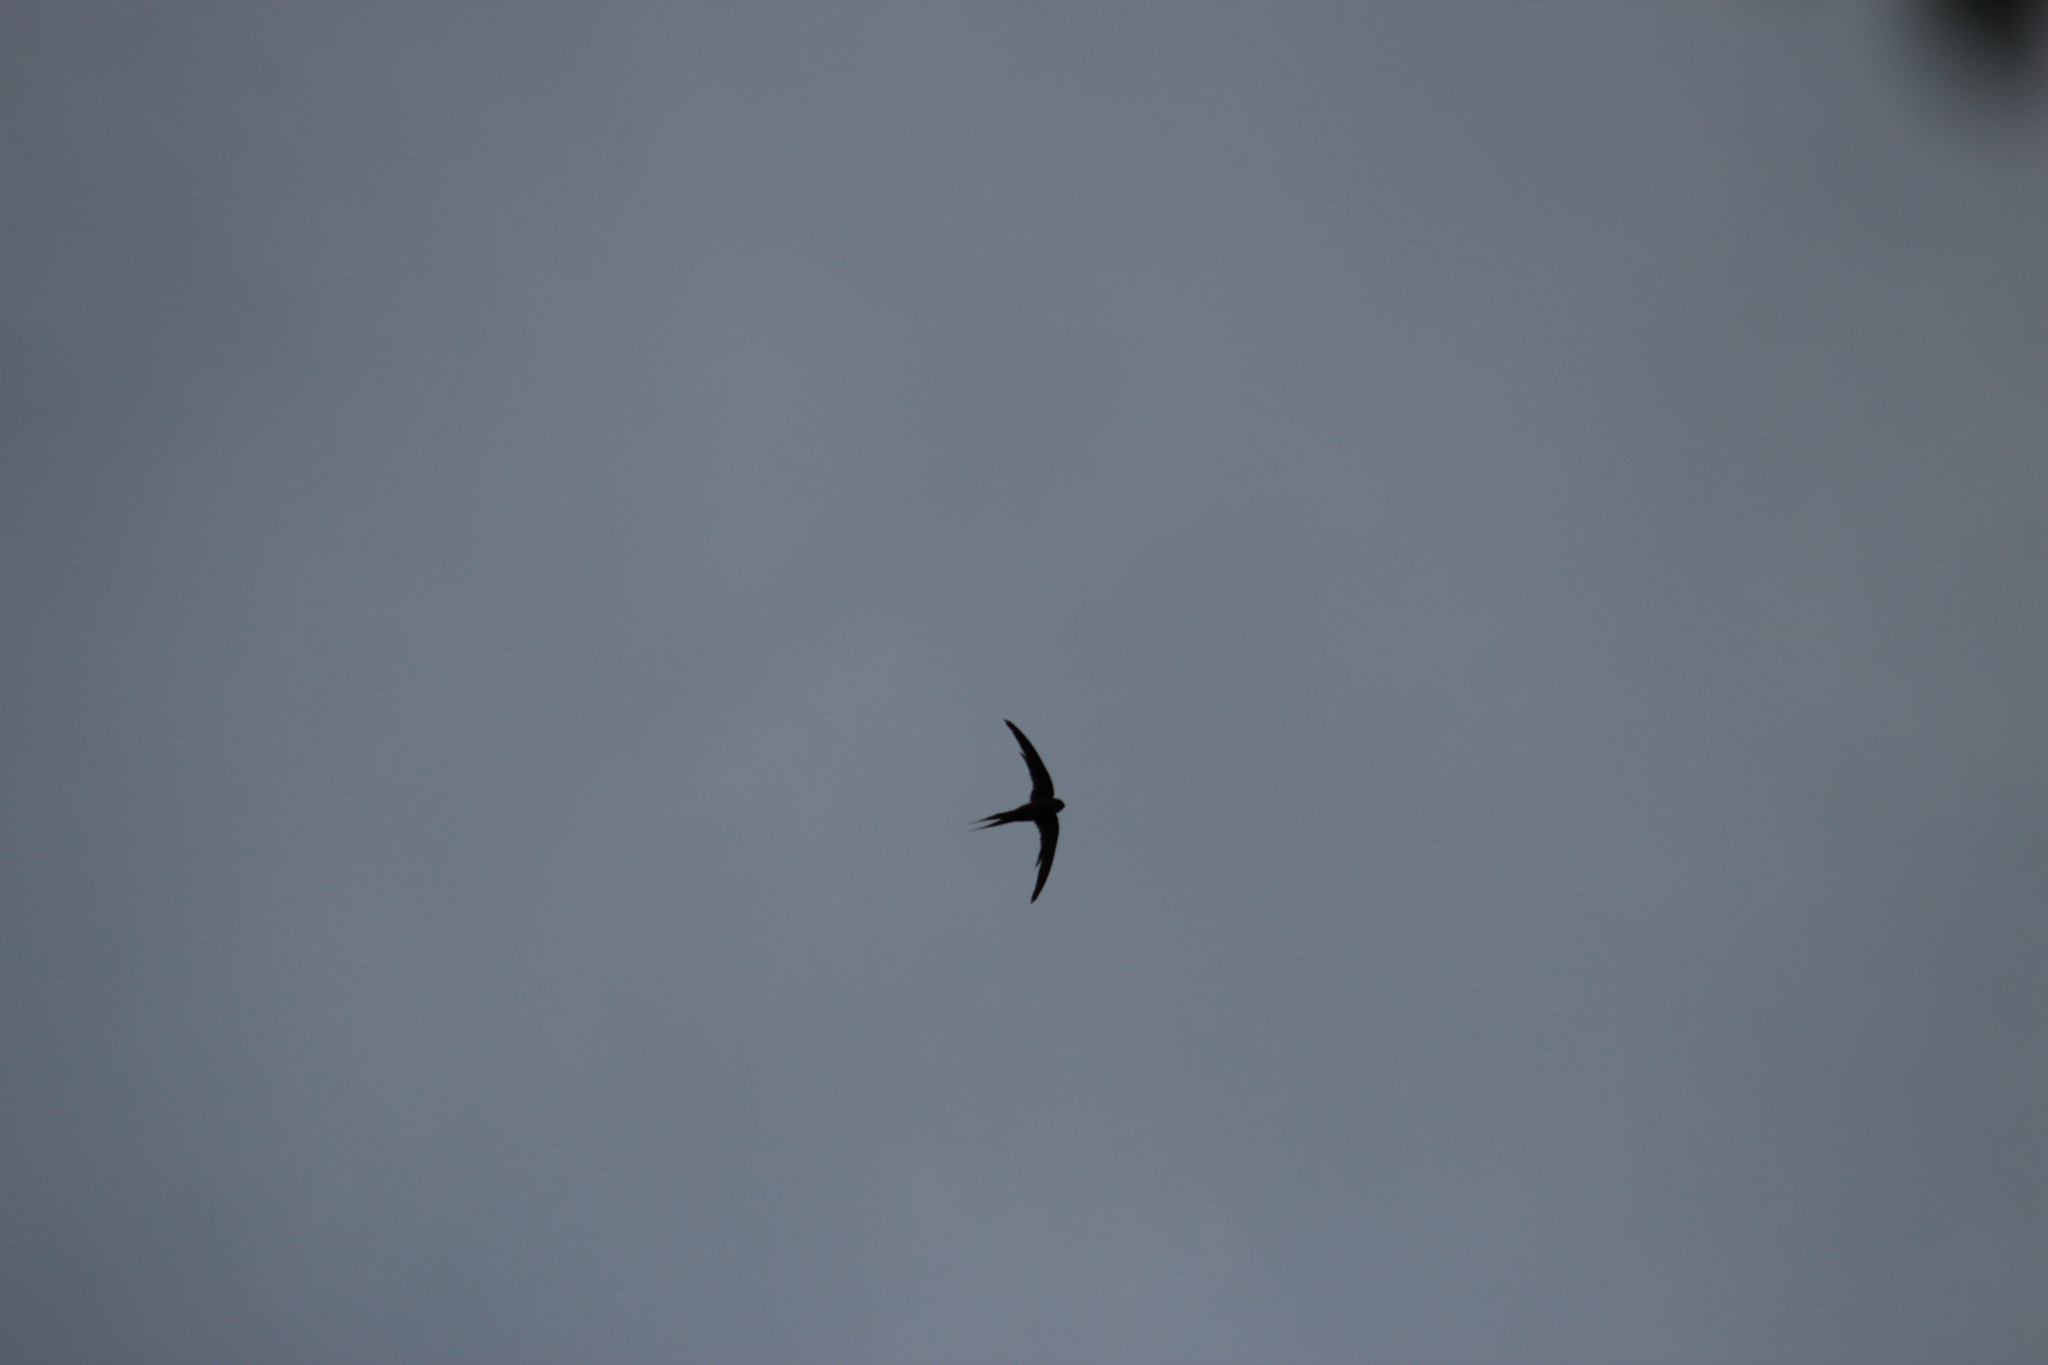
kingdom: Animalia
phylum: Chordata
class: Aves
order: Apodiformes
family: Apodidae
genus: Cypsiurus
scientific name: Cypsiurus parvus
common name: African palm swift
